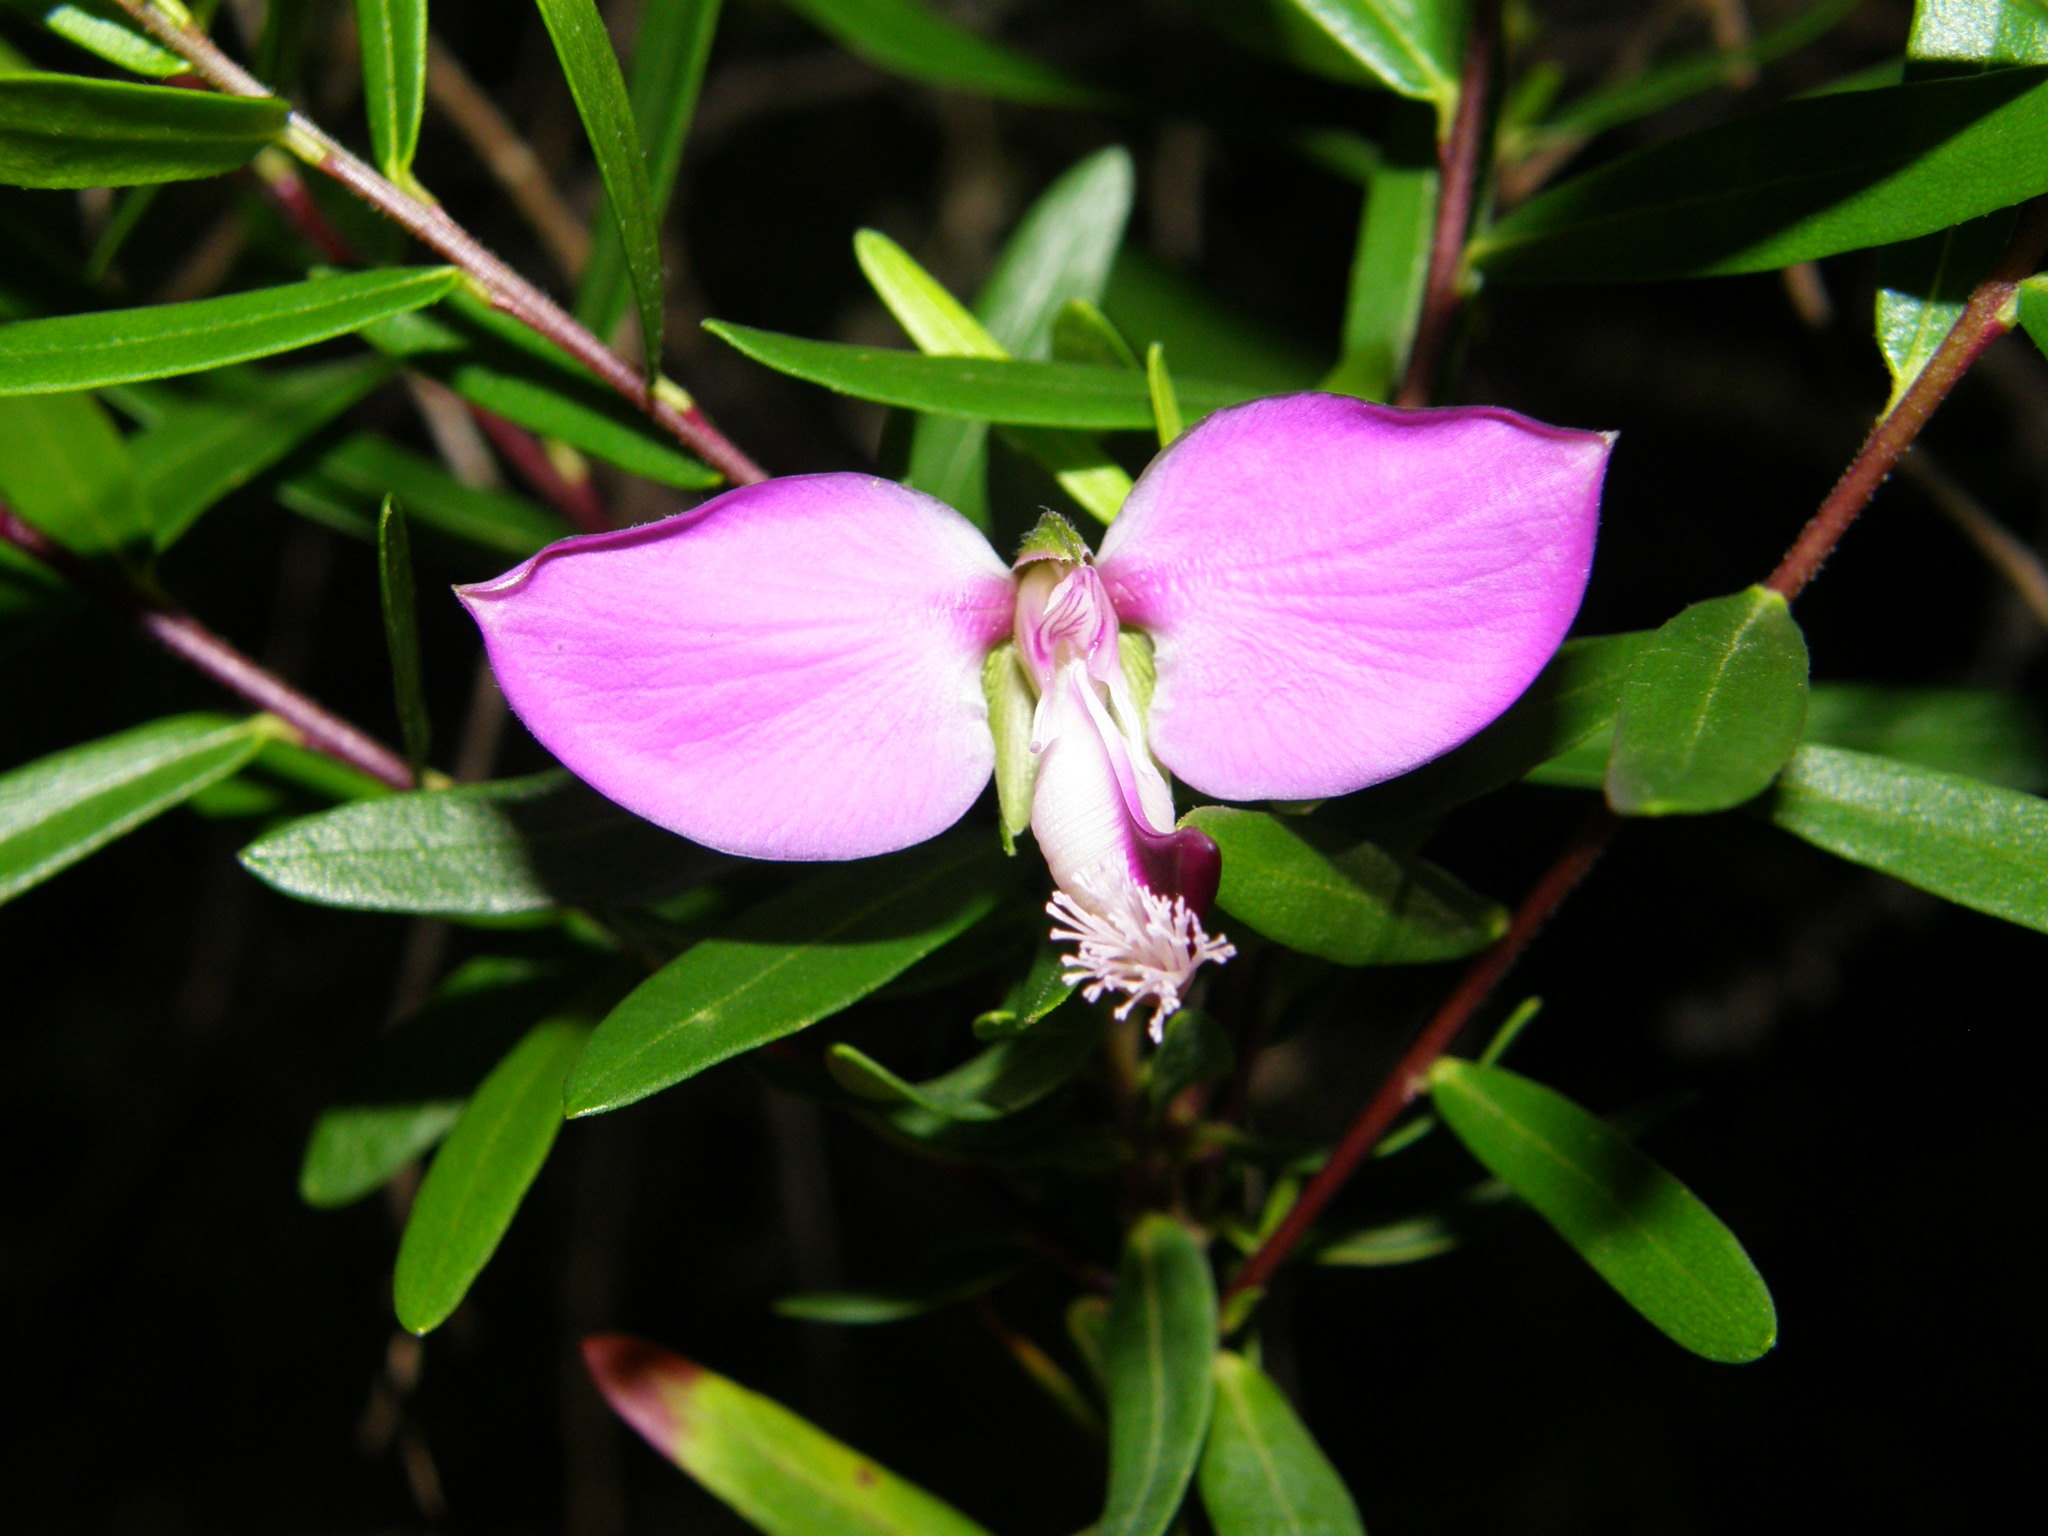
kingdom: Plantae
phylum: Tracheophyta
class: Magnoliopsida
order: Fabales
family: Polygalaceae
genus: Polygala
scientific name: Polygala myrtifolia
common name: Myrtle-leaf milkwort
